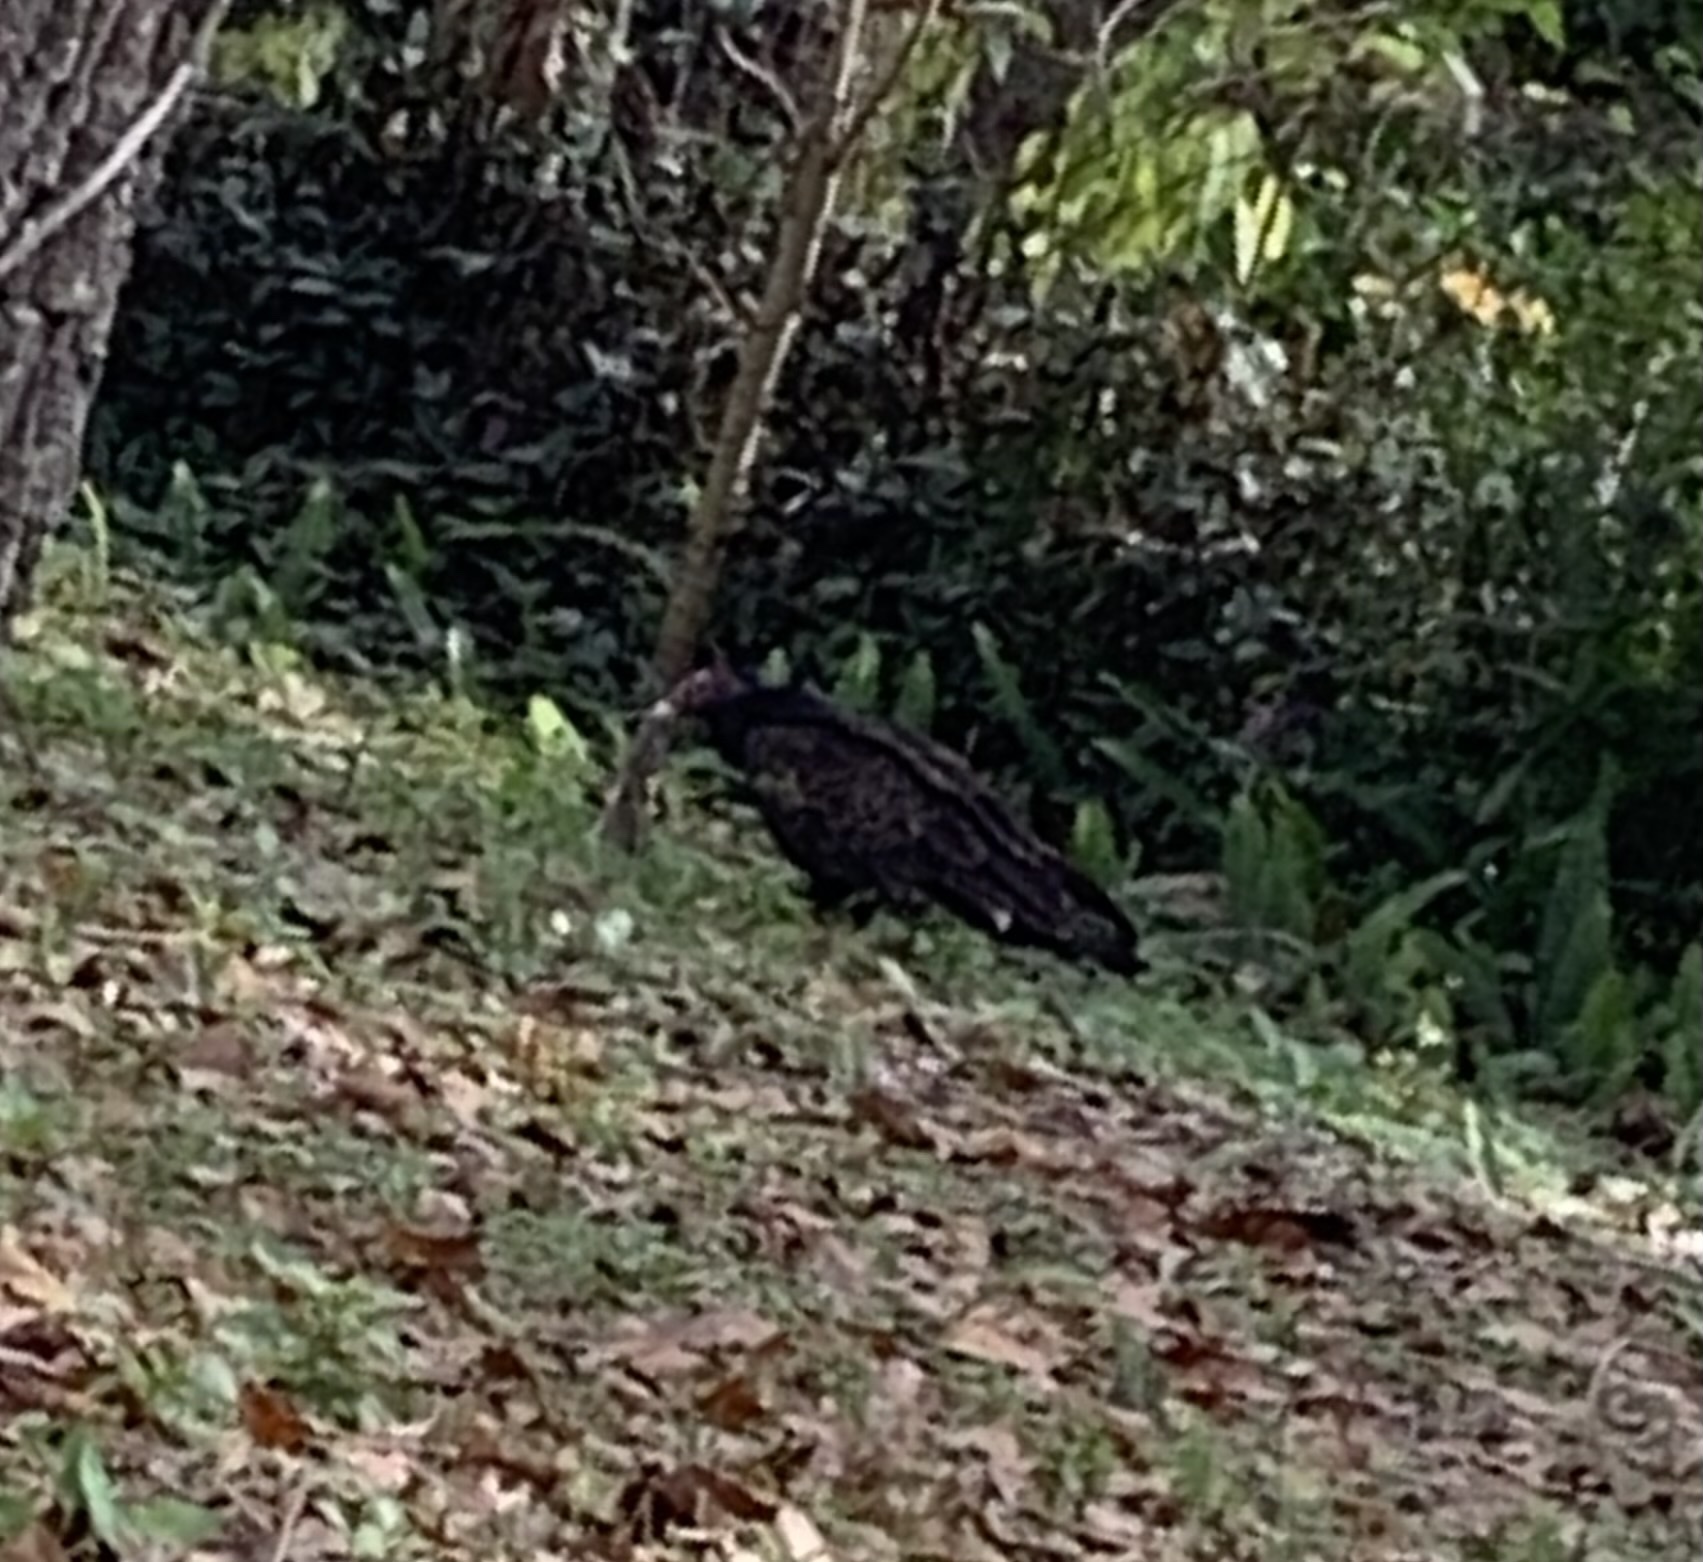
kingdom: Animalia
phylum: Chordata
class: Aves
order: Accipitriformes
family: Cathartidae
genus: Cathartes
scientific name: Cathartes aura
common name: Turkey vulture
